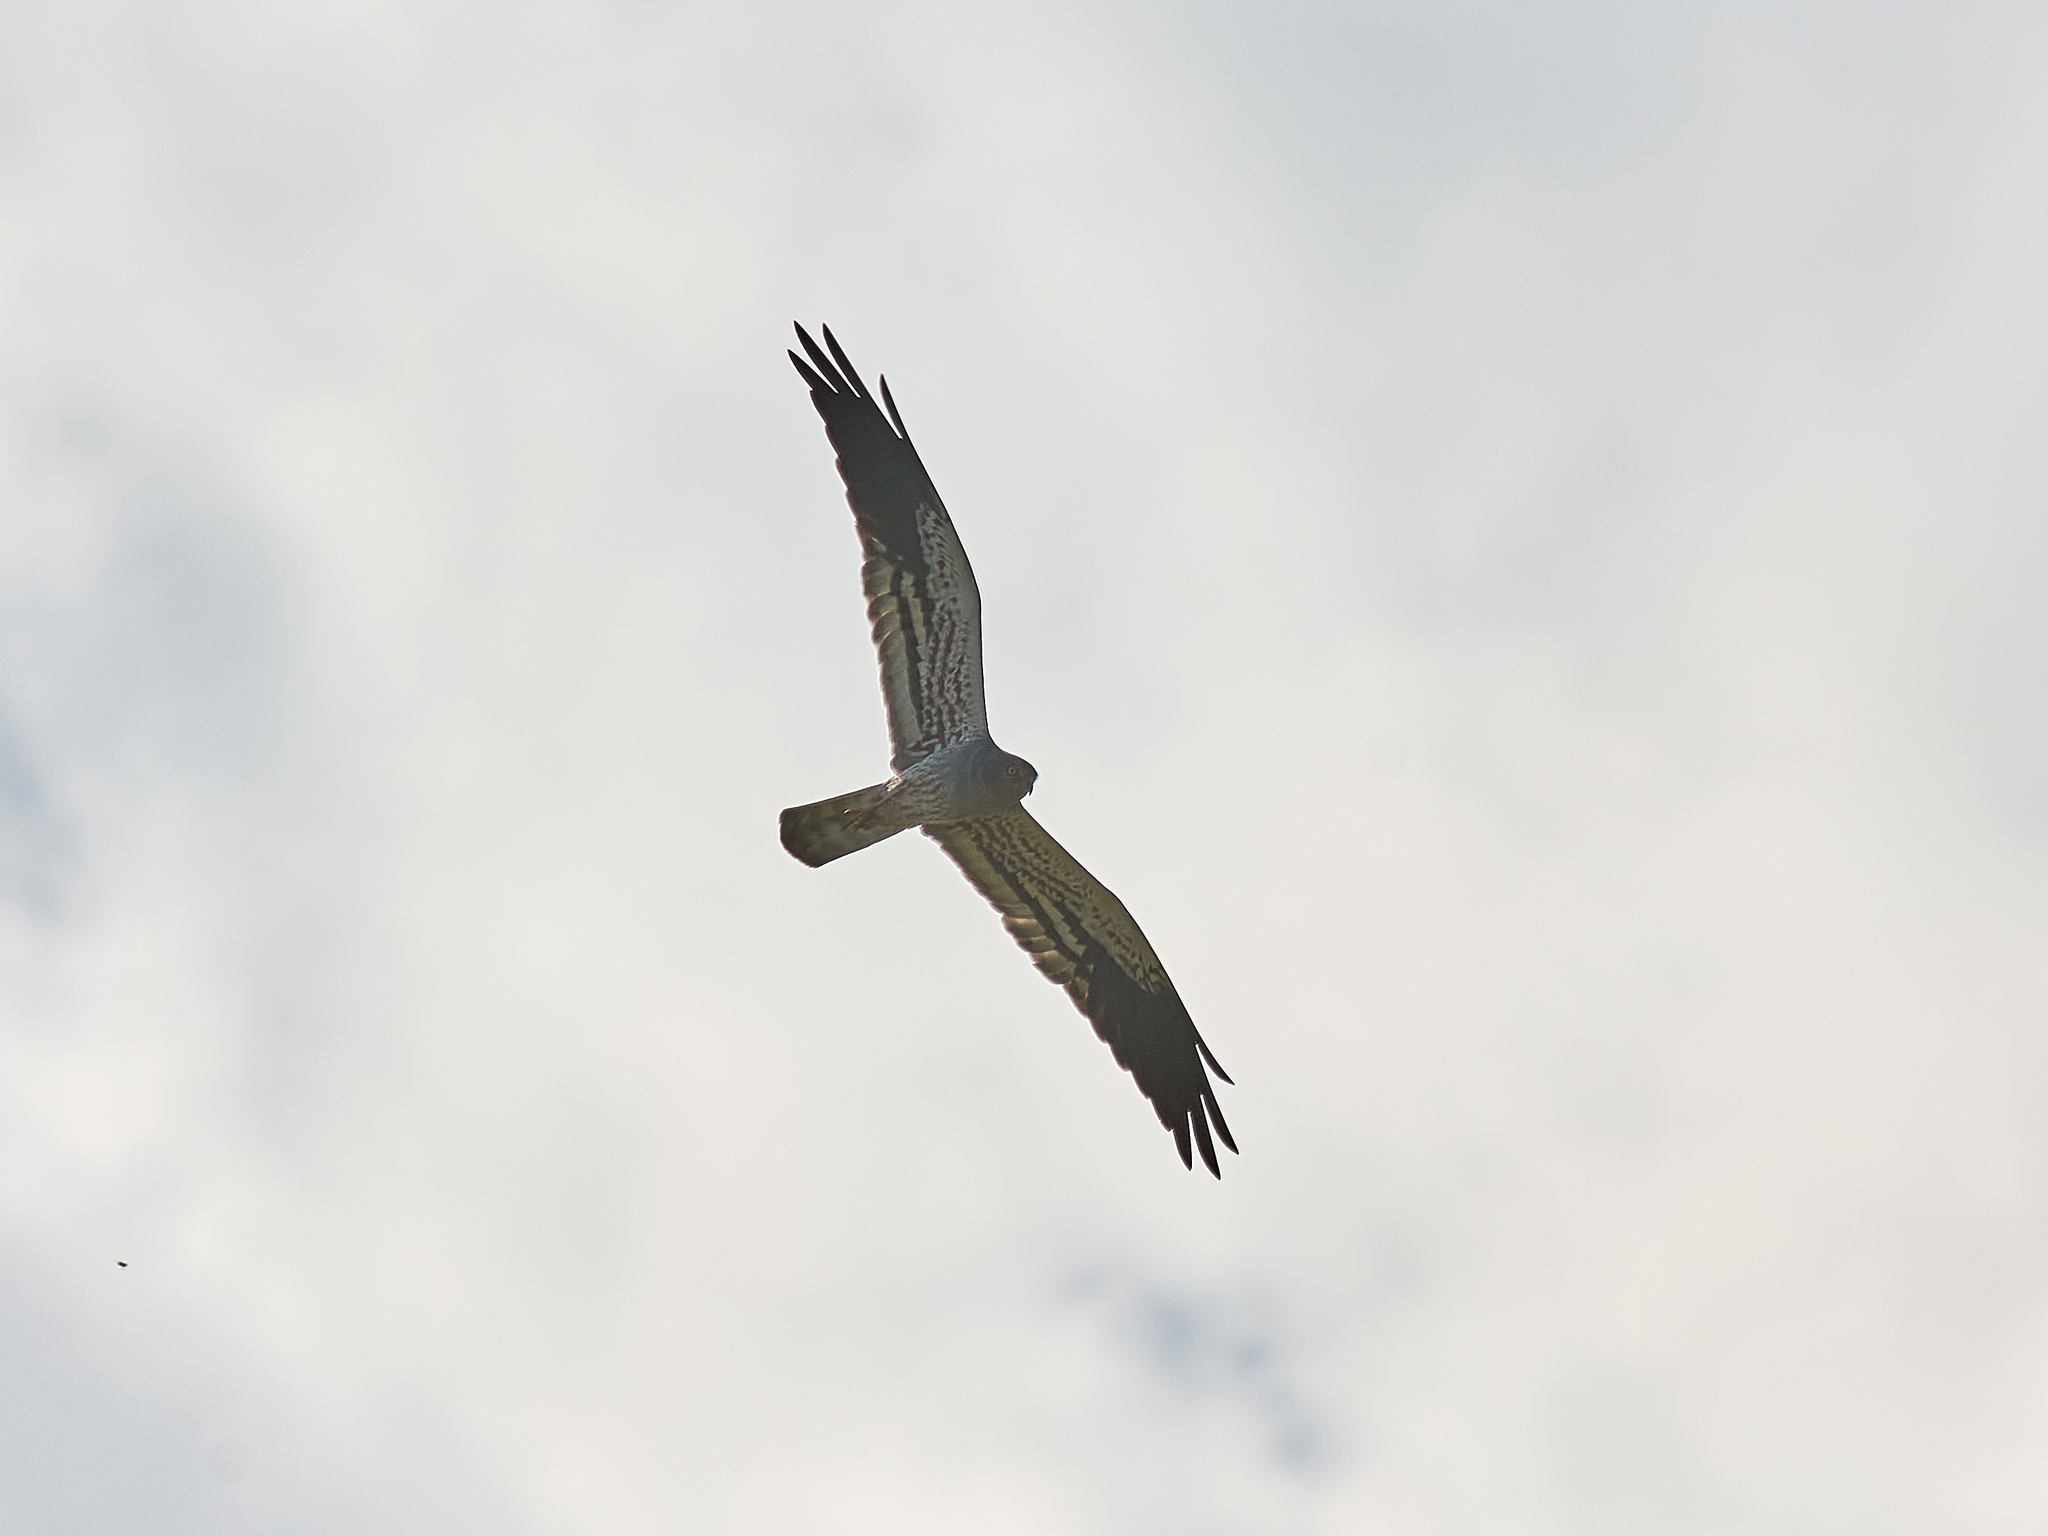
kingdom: Animalia
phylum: Chordata
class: Aves
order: Accipitriformes
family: Accipitridae
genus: Circus
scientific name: Circus pygargus
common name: Montagu's harrier
